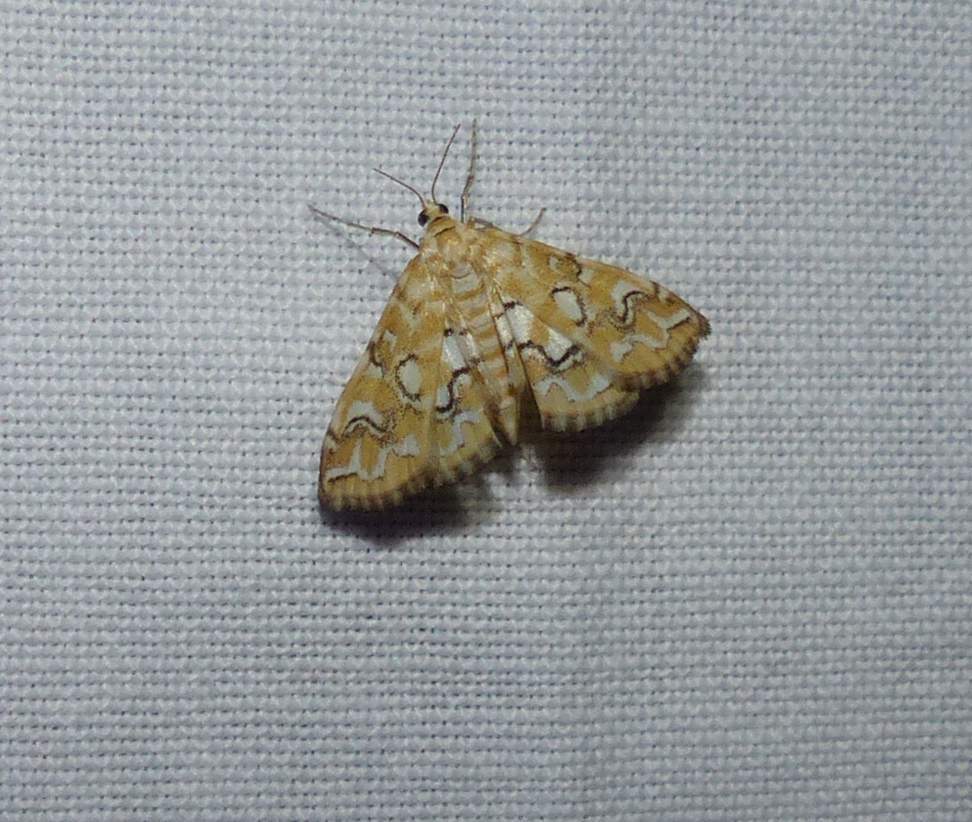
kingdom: Animalia
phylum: Arthropoda
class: Insecta
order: Lepidoptera
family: Crambidae
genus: Elophila
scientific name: Elophila icciusalis
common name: Pondside pyralid moth
